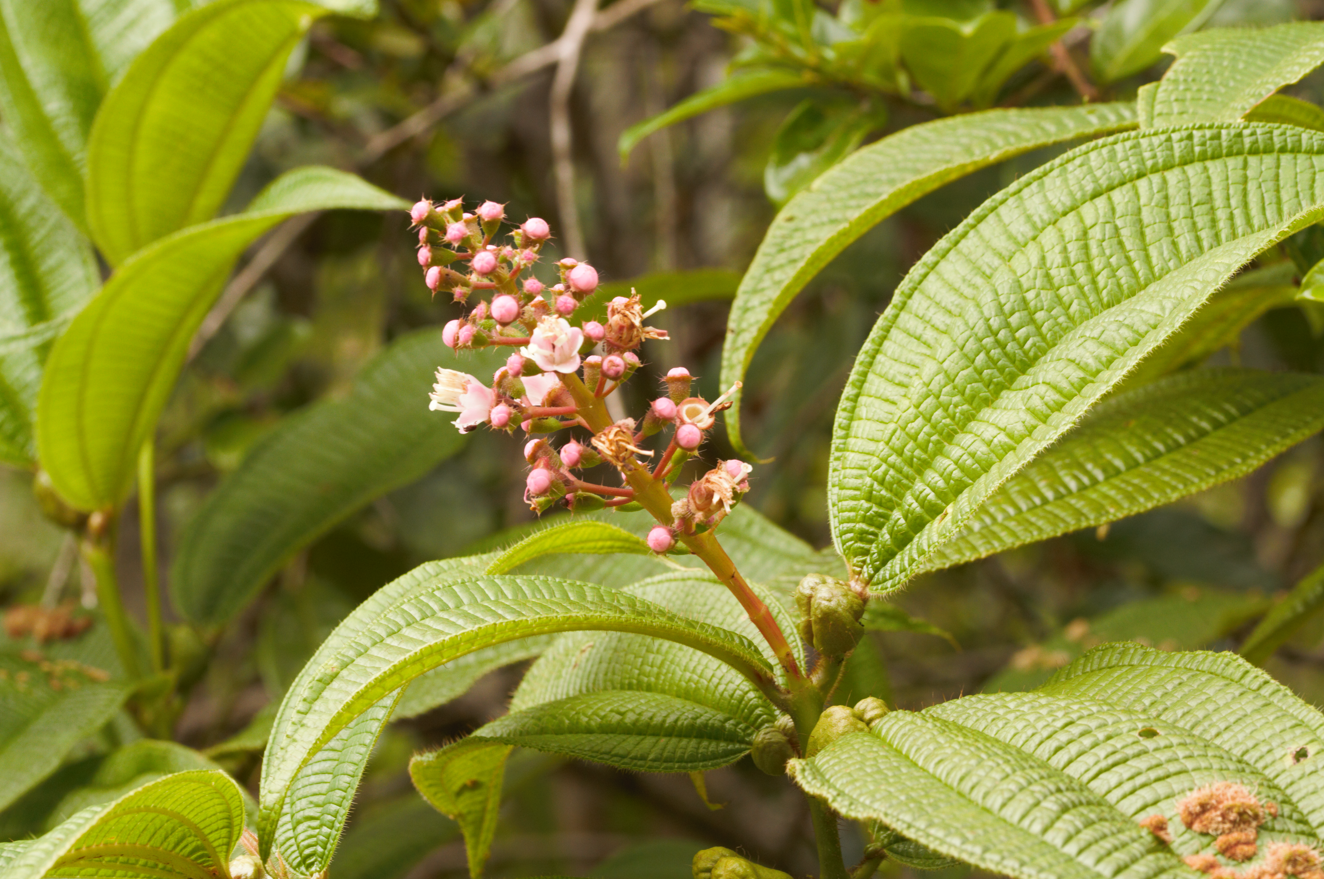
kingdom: Plantae
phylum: Tracheophyta
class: Magnoliopsida
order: Myrtales
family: Melastomataceae
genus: Miconia
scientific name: Miconia tococa
